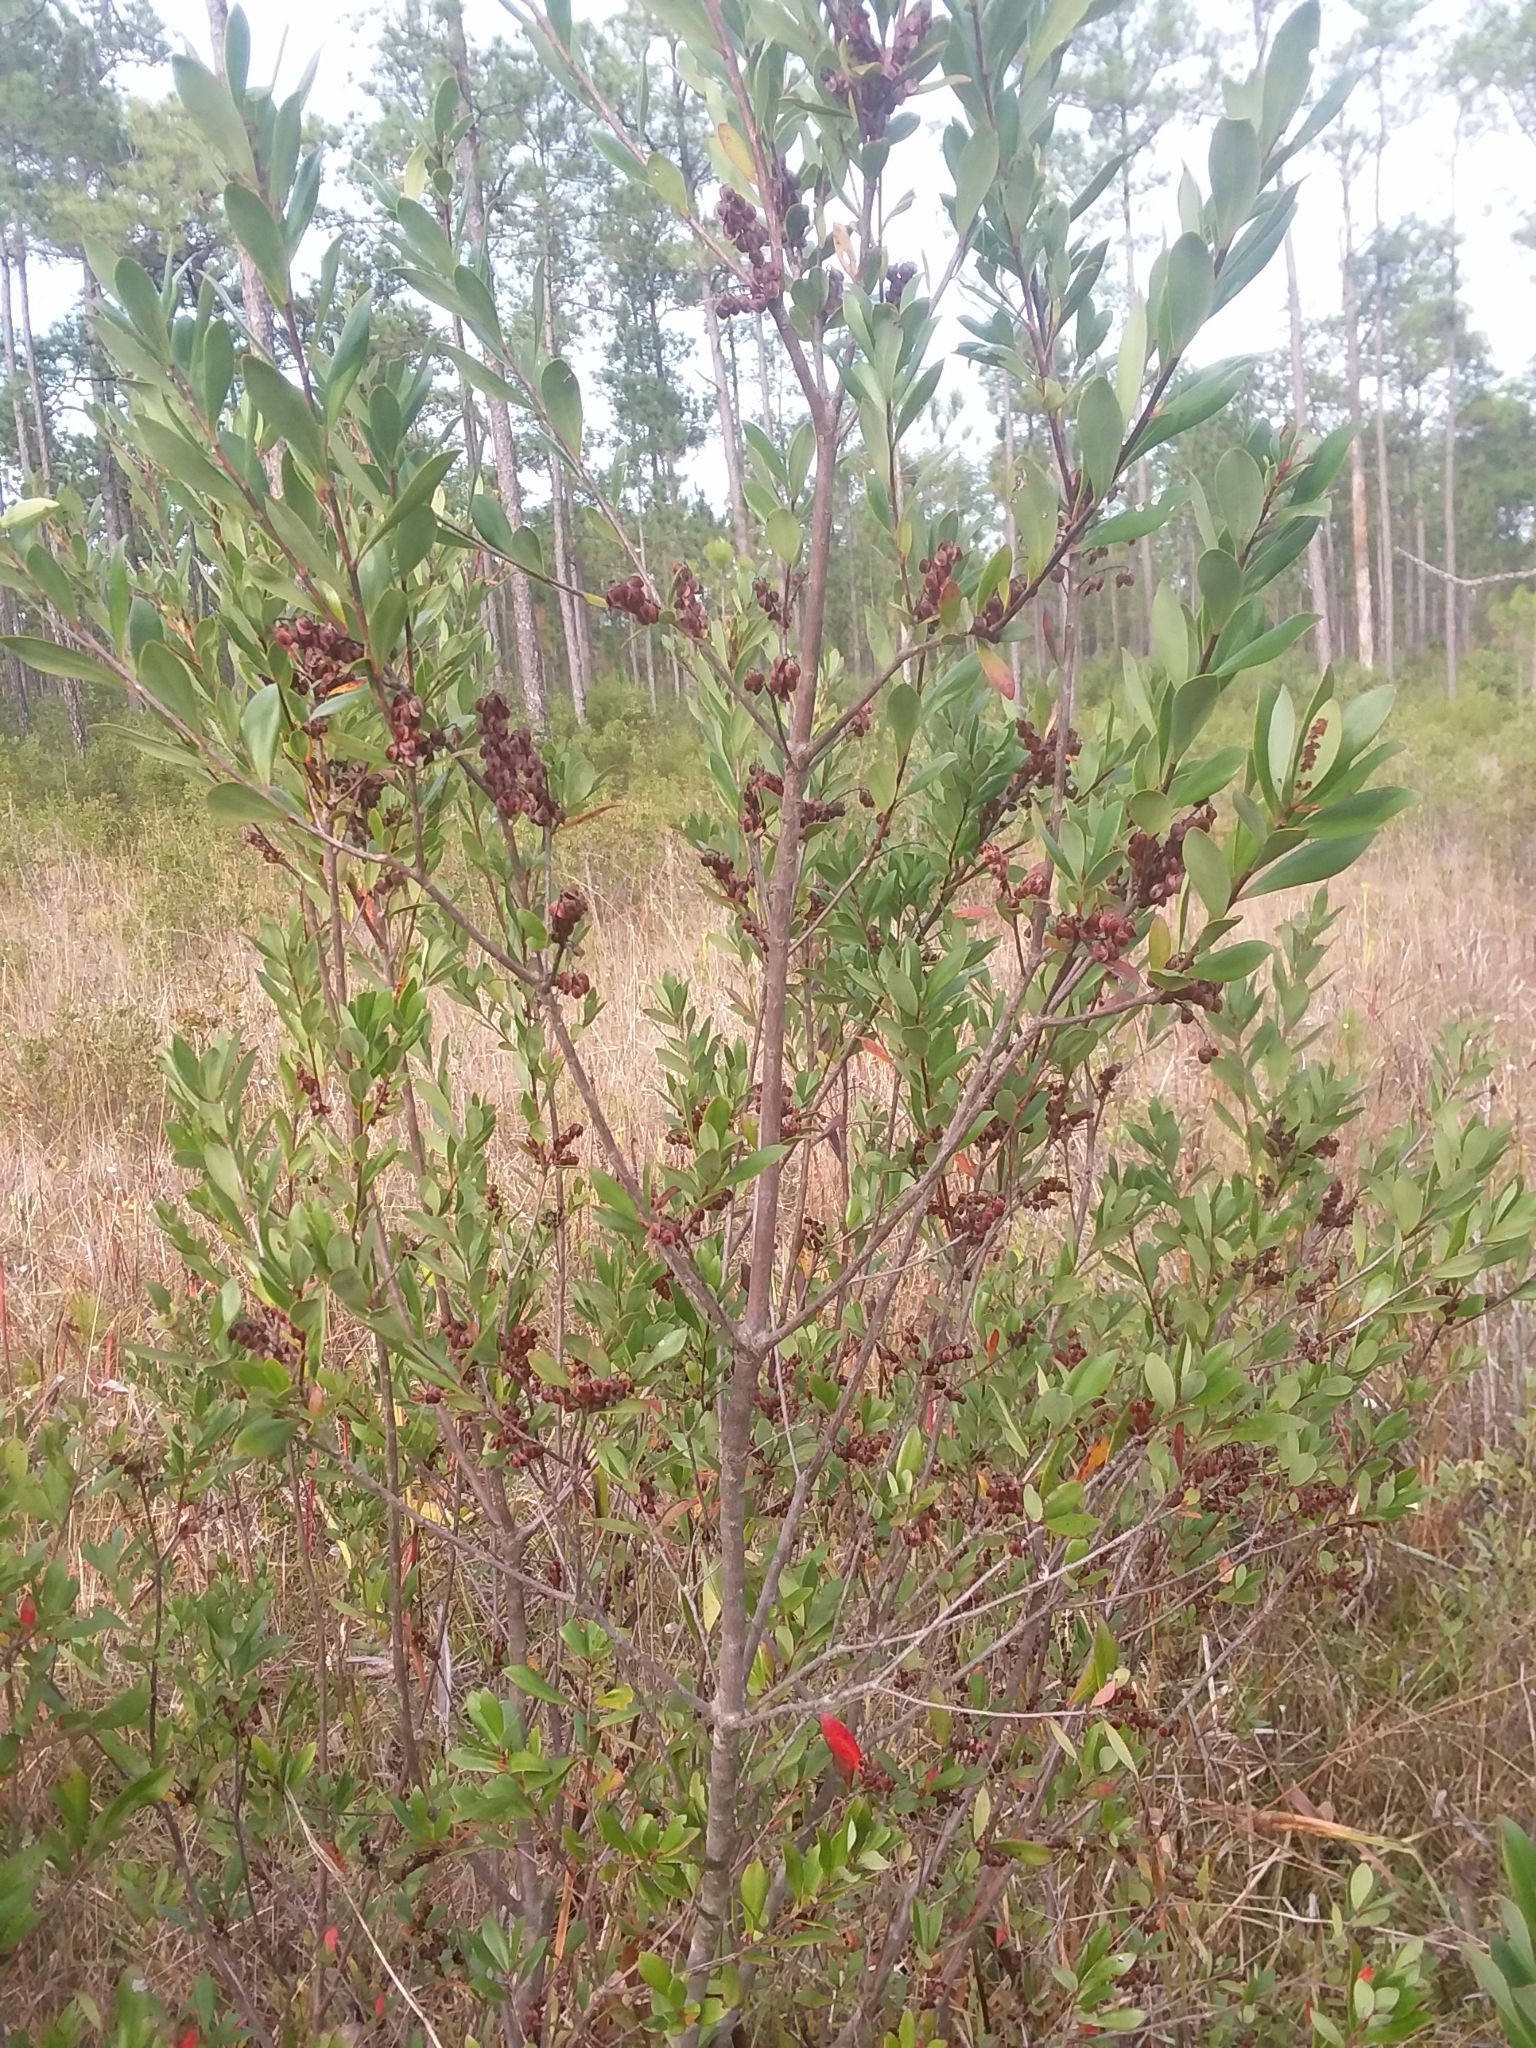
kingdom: Plantae
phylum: Tracheophyta
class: Magnoliopsida
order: Ericales
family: Cyrillaceae
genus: Cliftonia
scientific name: Cliftonia monophylla
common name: Titi
